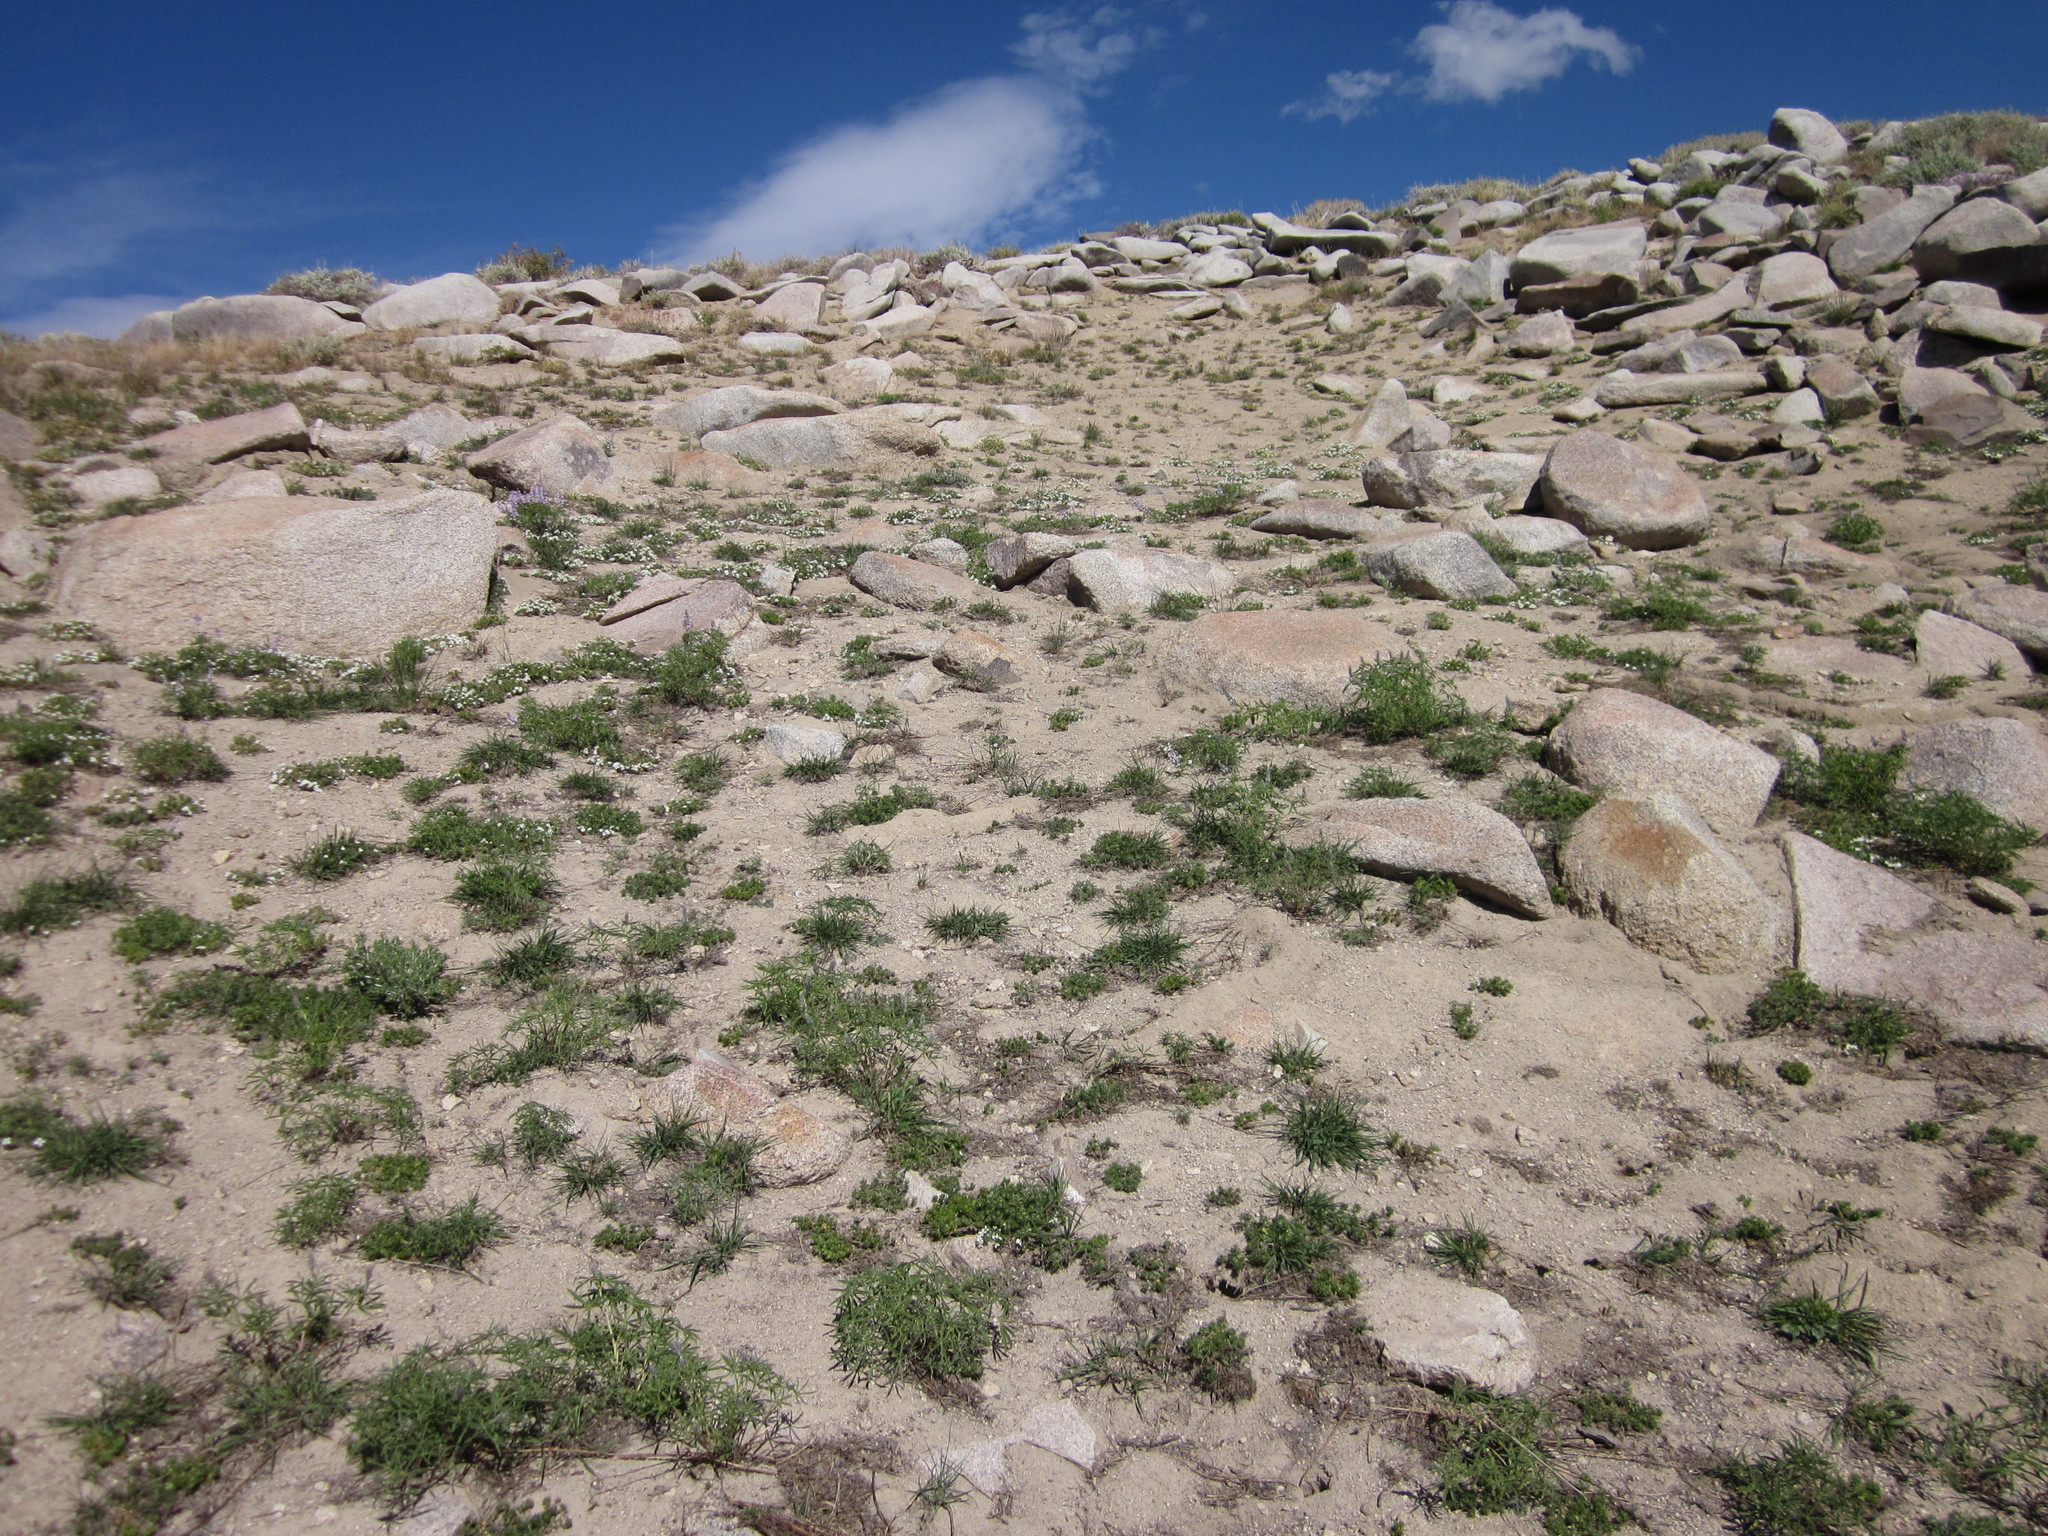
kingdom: Plantae
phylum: Tracheophyta
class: Magnoliopsida
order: Ericales
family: Polemoniaceae
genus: Leptosiphon
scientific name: Leptosiphon nuttallii
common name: Nuttall's linanthus
